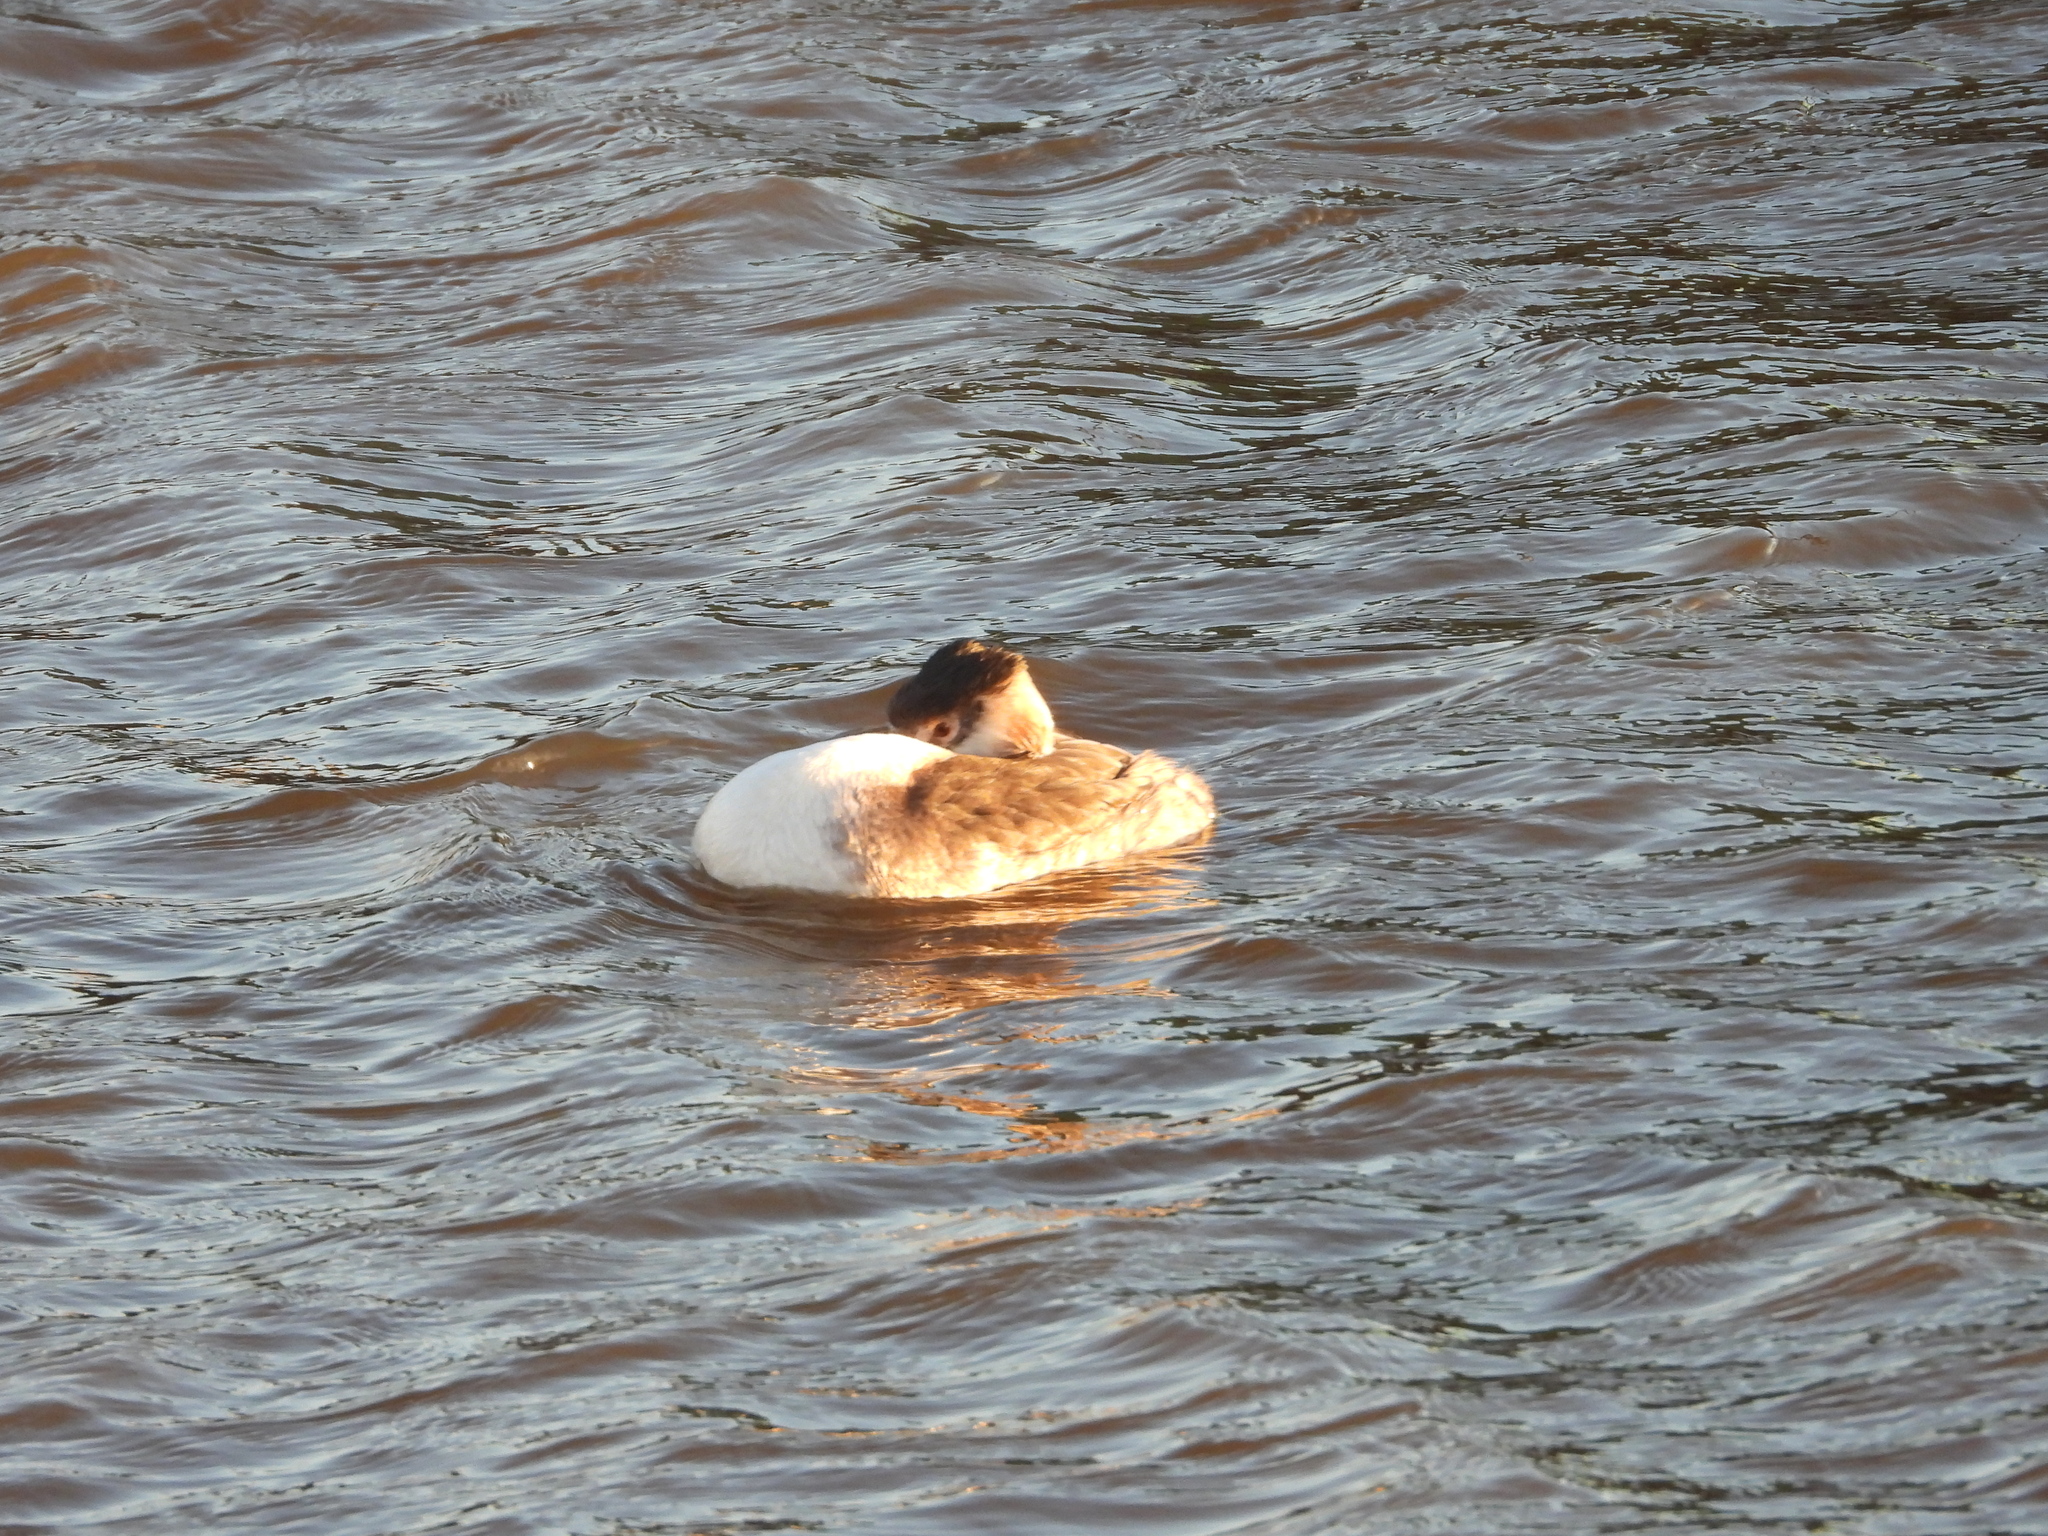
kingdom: Animalia
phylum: Chordata
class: Aves
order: Podicipediformes
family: Podicipedidae
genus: Podiceps
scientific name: Podiceps cristatus
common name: Great crested grebe
